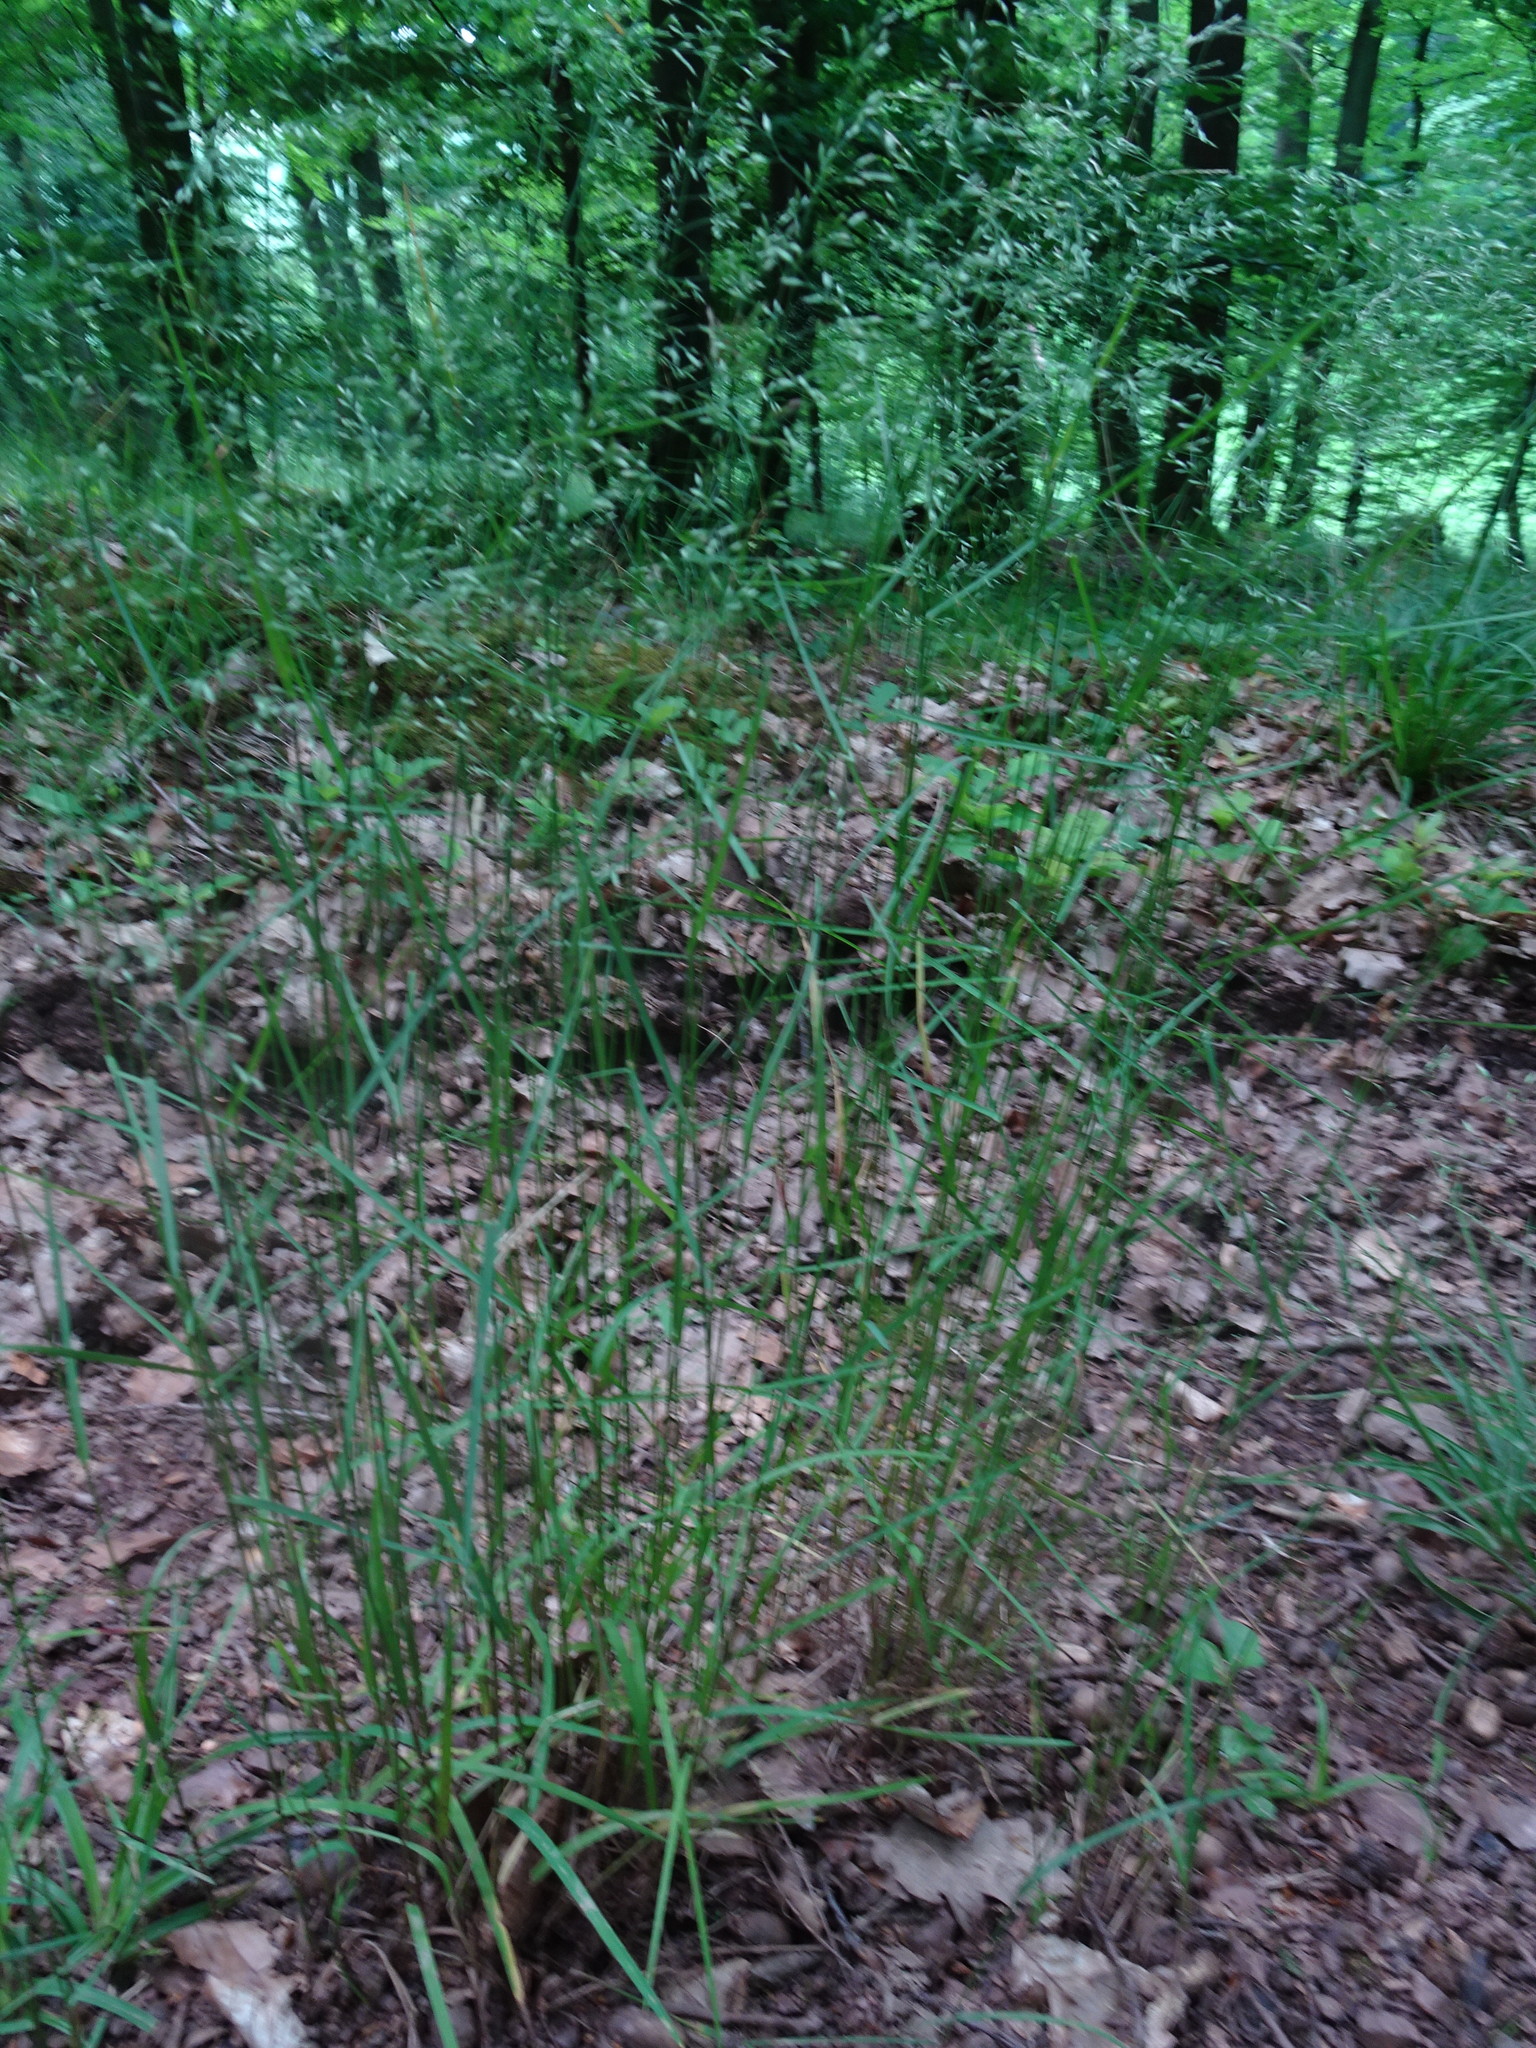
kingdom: Plantae
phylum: Tracheophyta
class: Liliopsida
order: Poales
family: Poaceae
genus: Poa
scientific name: Poa nemoralis
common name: Wood bluegrass
